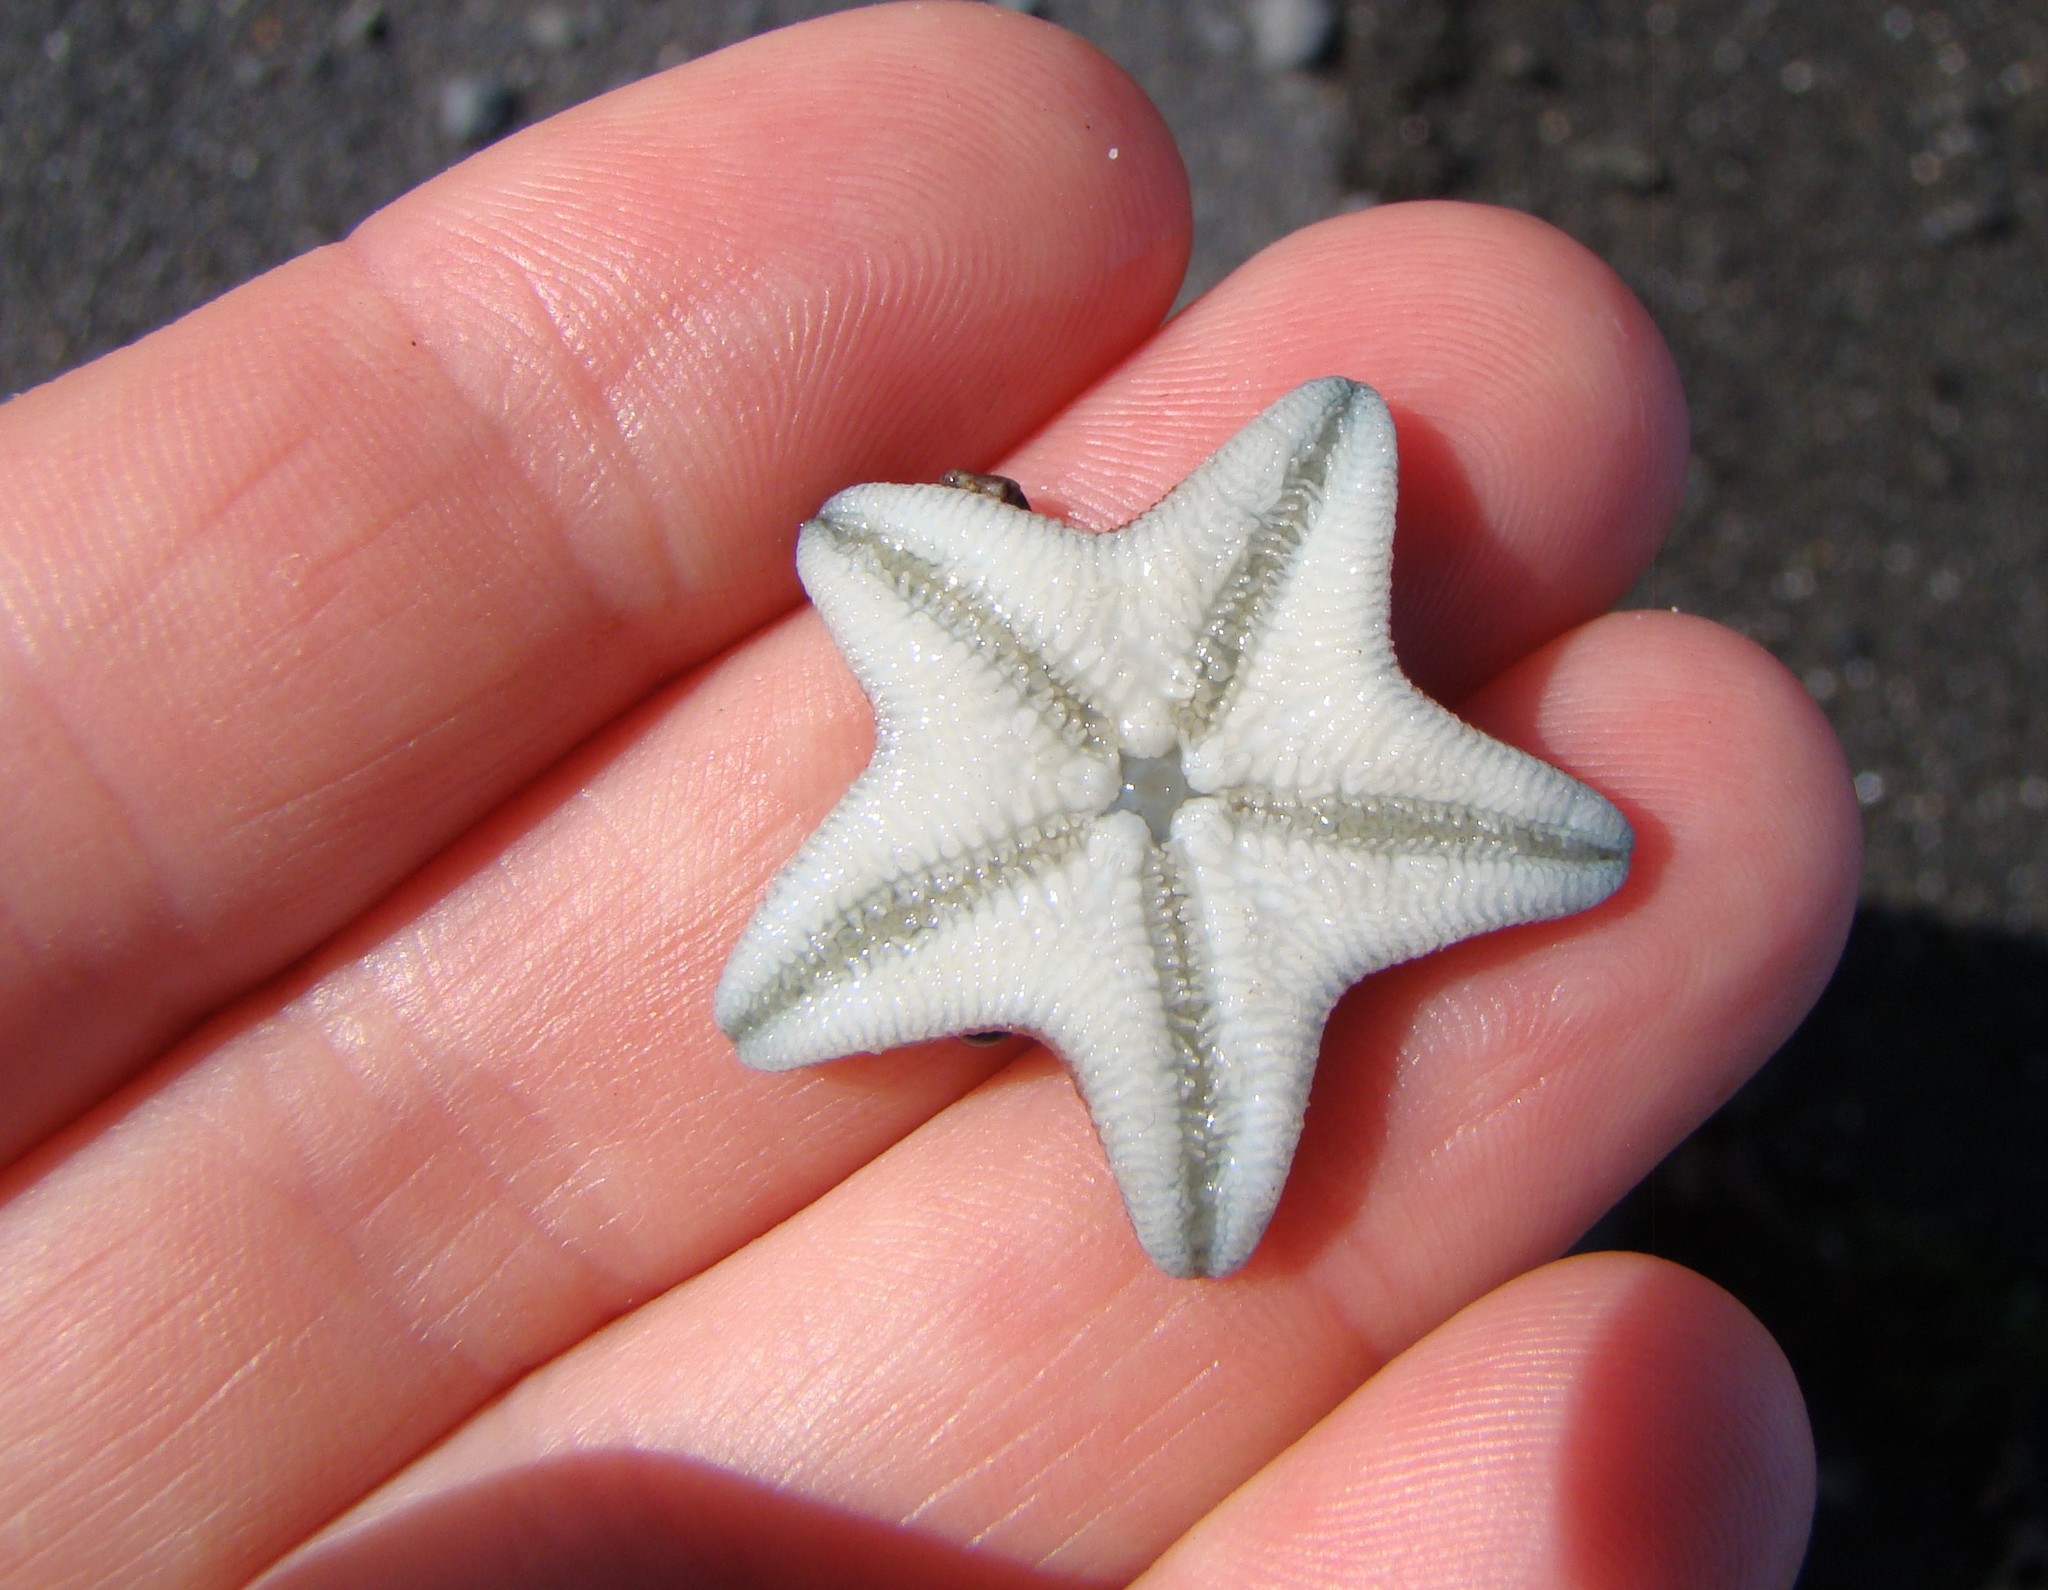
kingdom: Animalia
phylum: Echinodermata
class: Asteroidea
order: Valvatida
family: Asterinidae
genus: Patiriella
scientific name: Patiriella regularis
